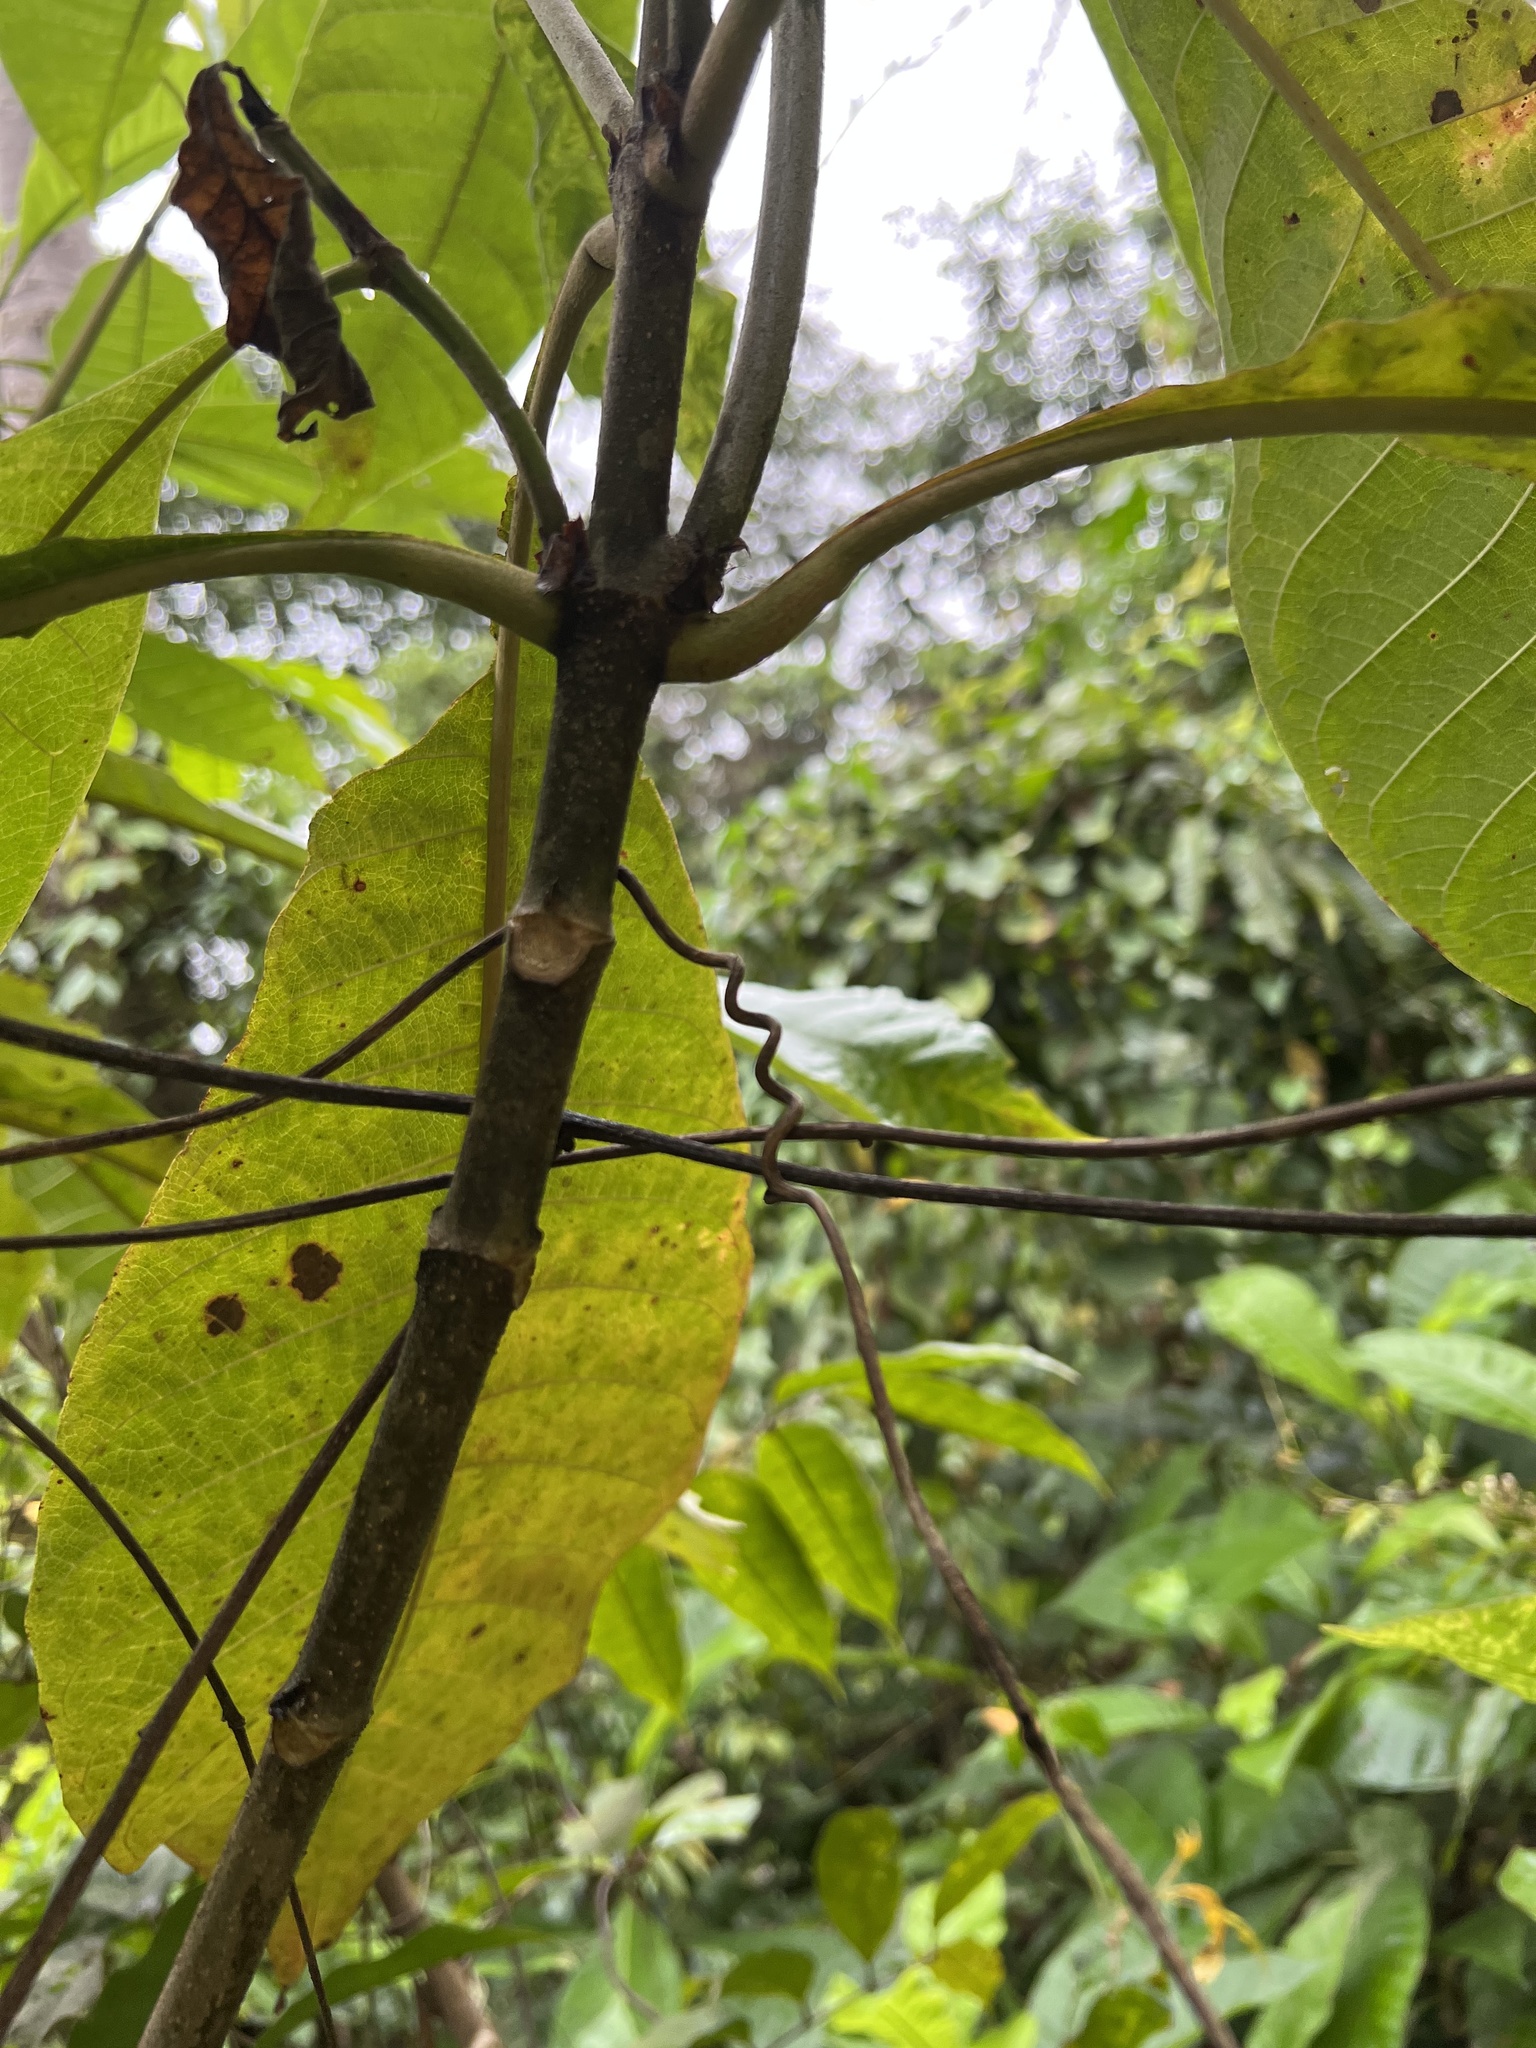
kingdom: Plantae
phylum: Tracheophyta
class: Magnoliopsida
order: Gentianales
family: Rubiaceae
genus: Isertia
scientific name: Isertia haenkeana
